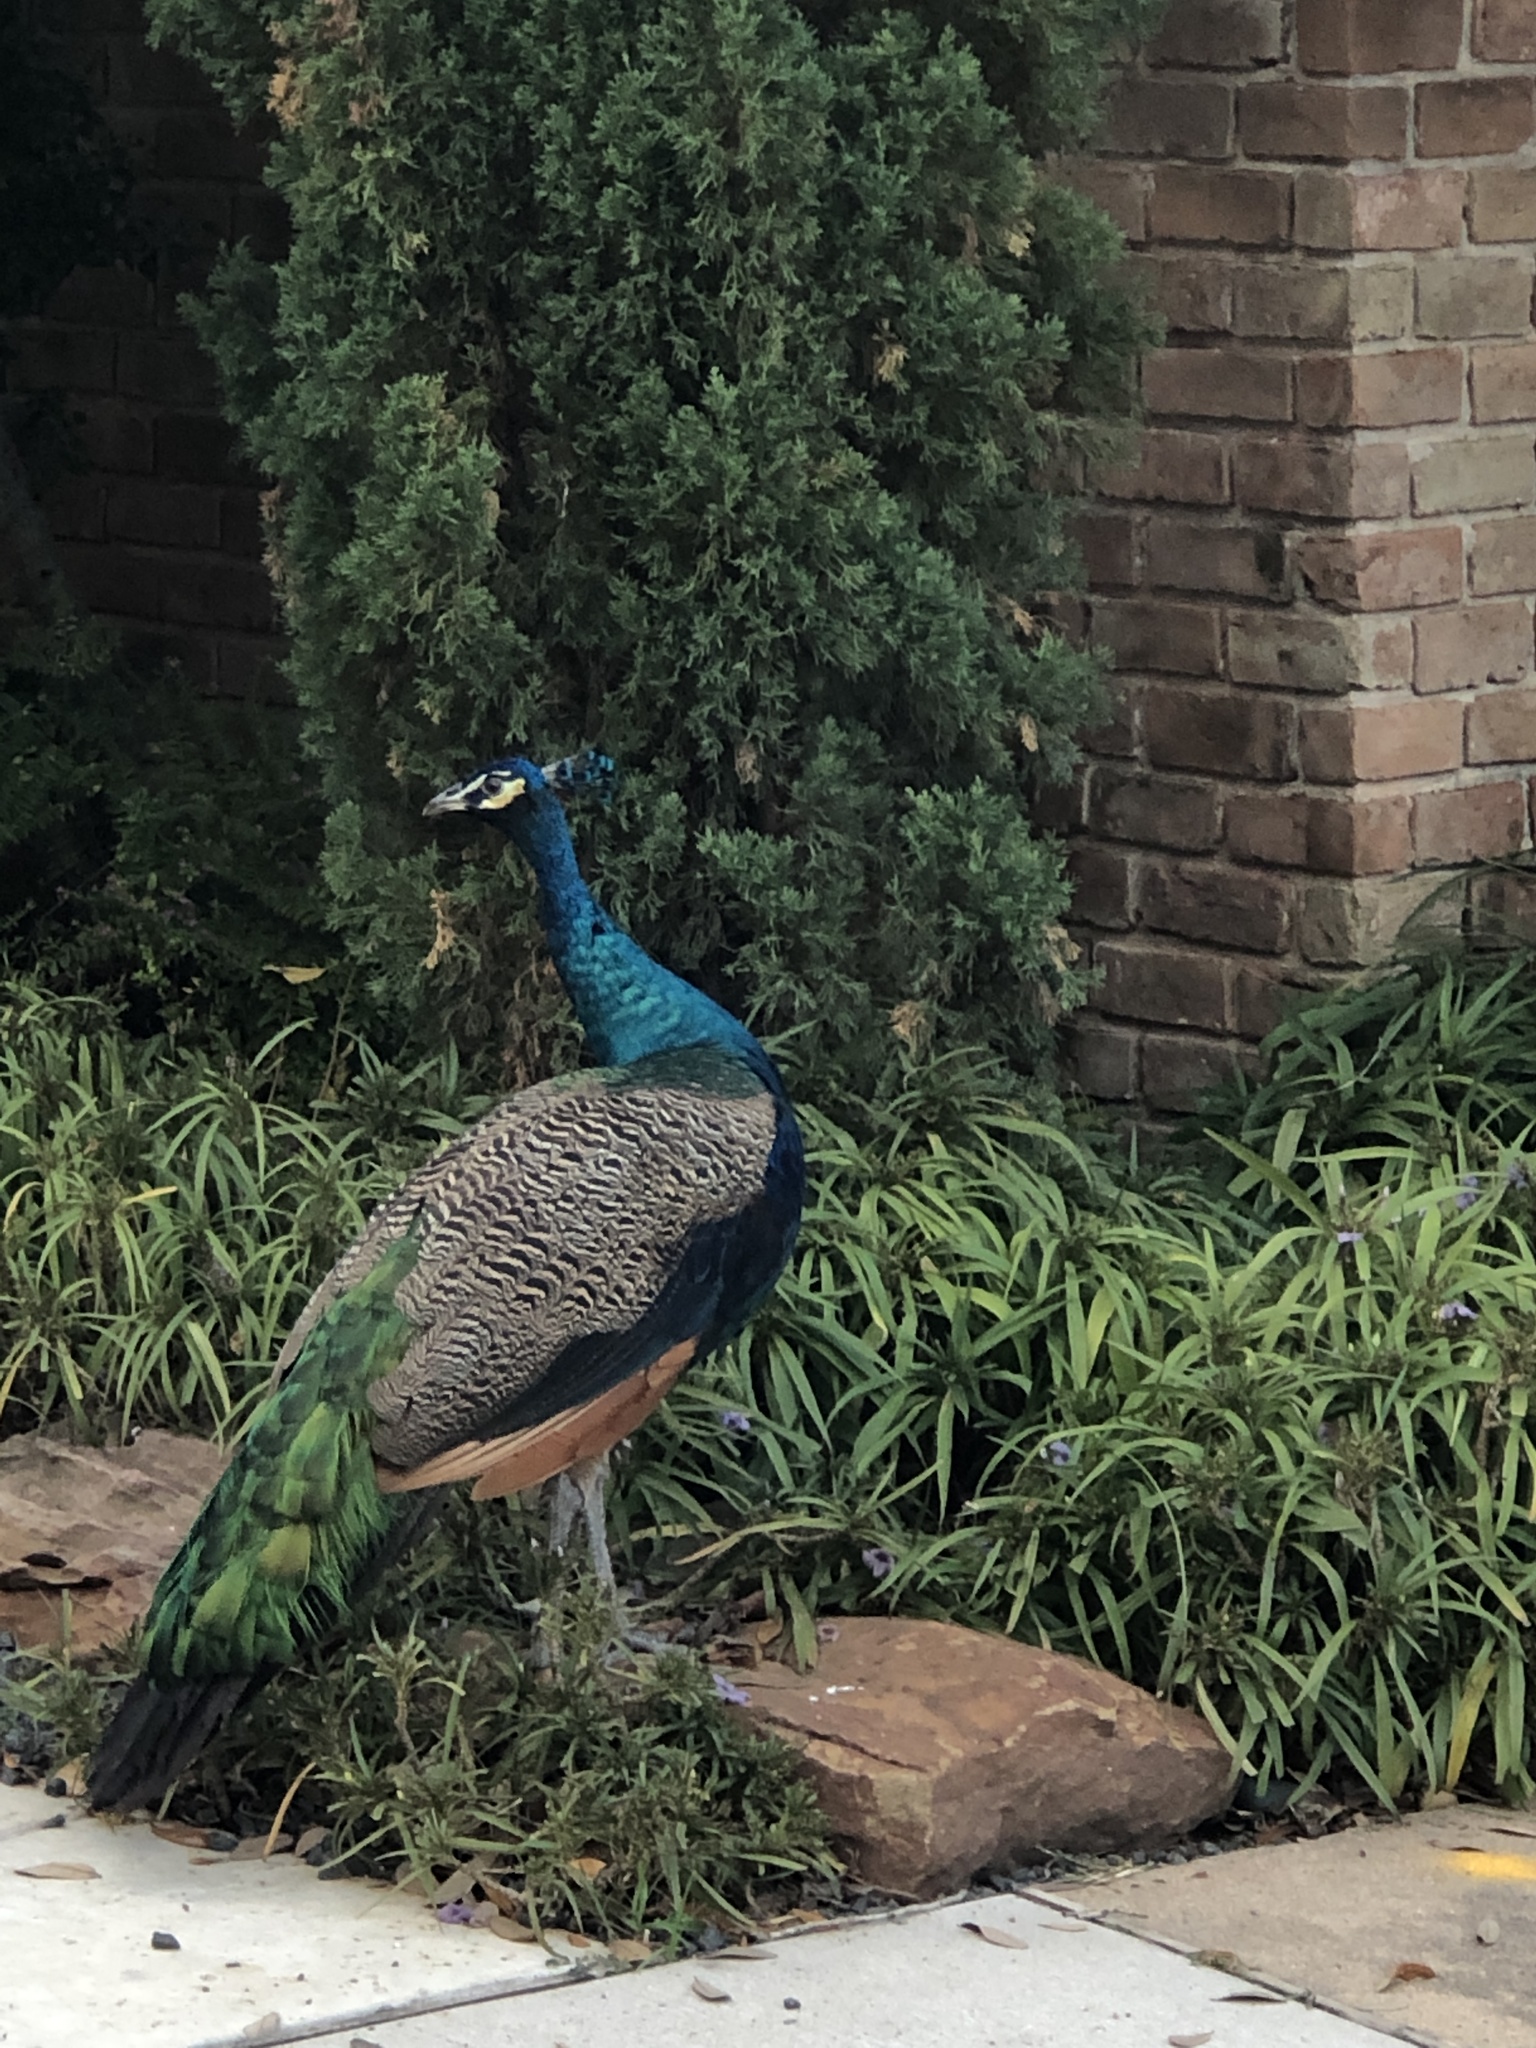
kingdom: Animalia
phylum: Chordata
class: Aves
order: Galliformes
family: Phasianidae
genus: Pavo
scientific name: Pavo
